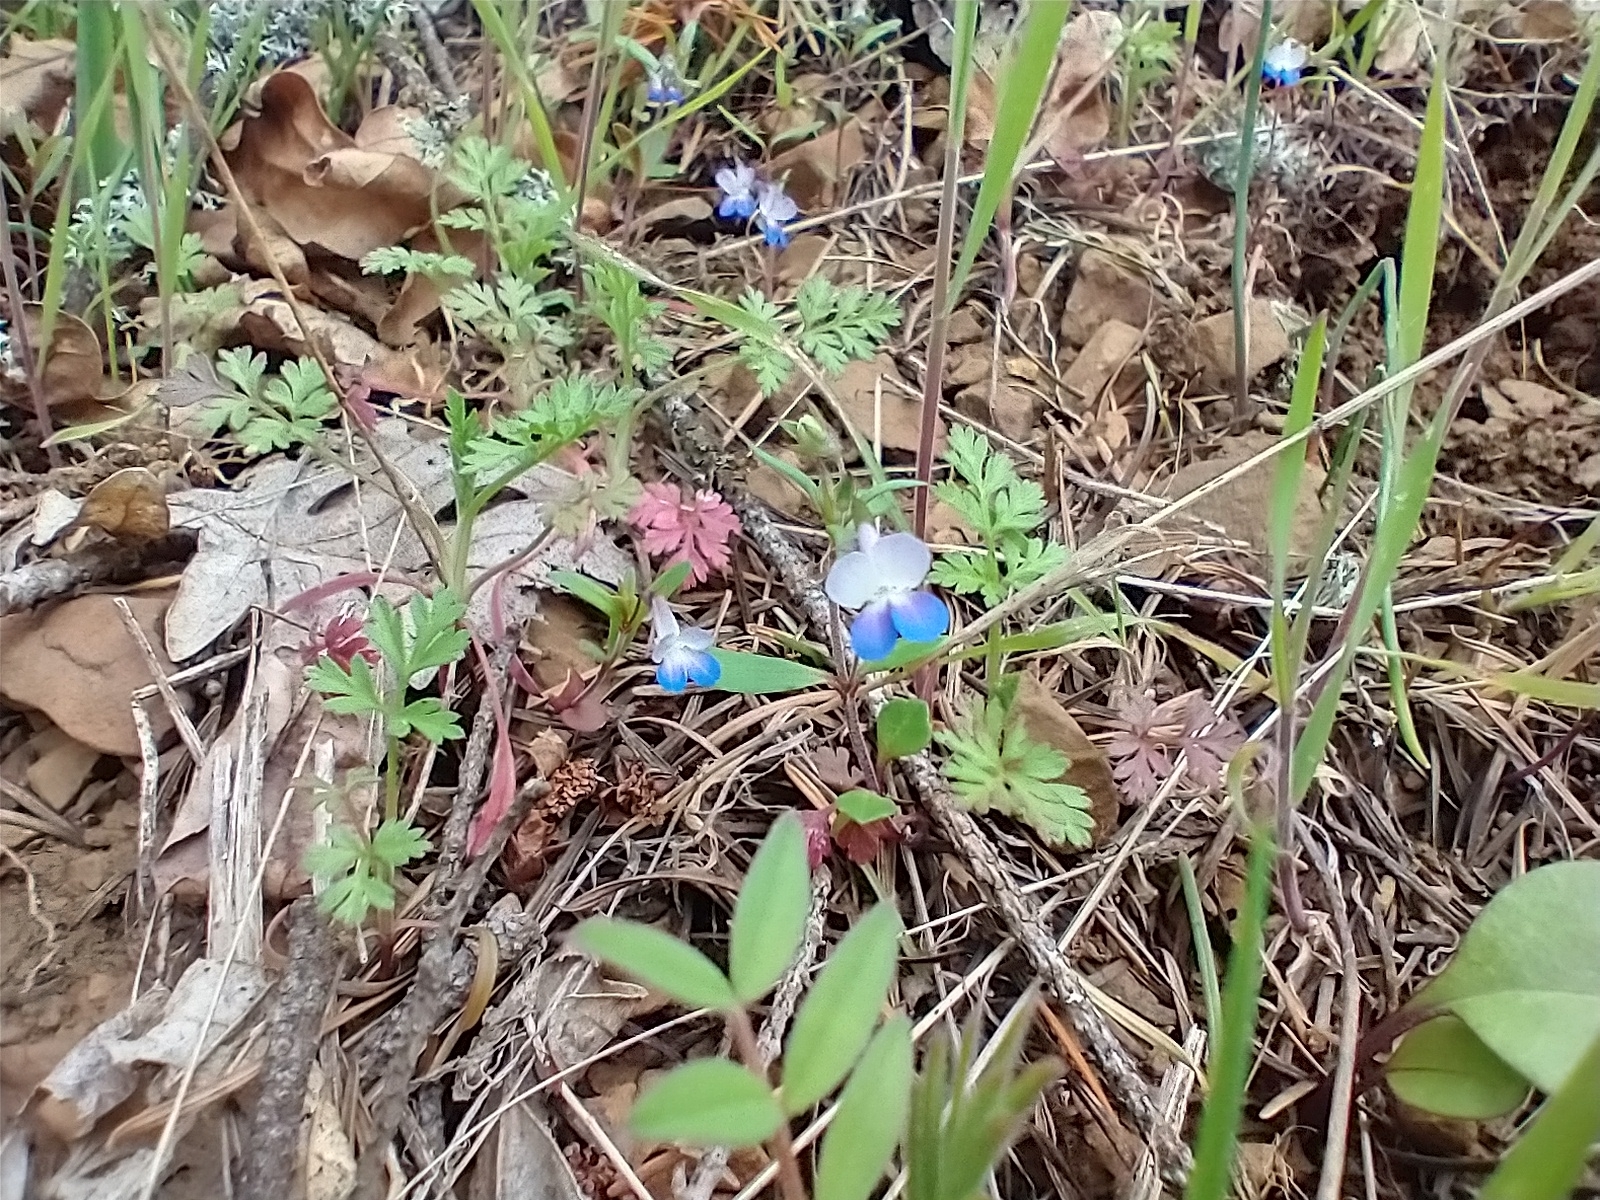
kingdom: Plantae
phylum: Tracheophyta
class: Magnoliopsida
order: Lamiales
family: Plantaginaceae
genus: Collinsia
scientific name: Collinsia parviflora
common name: Blue-lips
